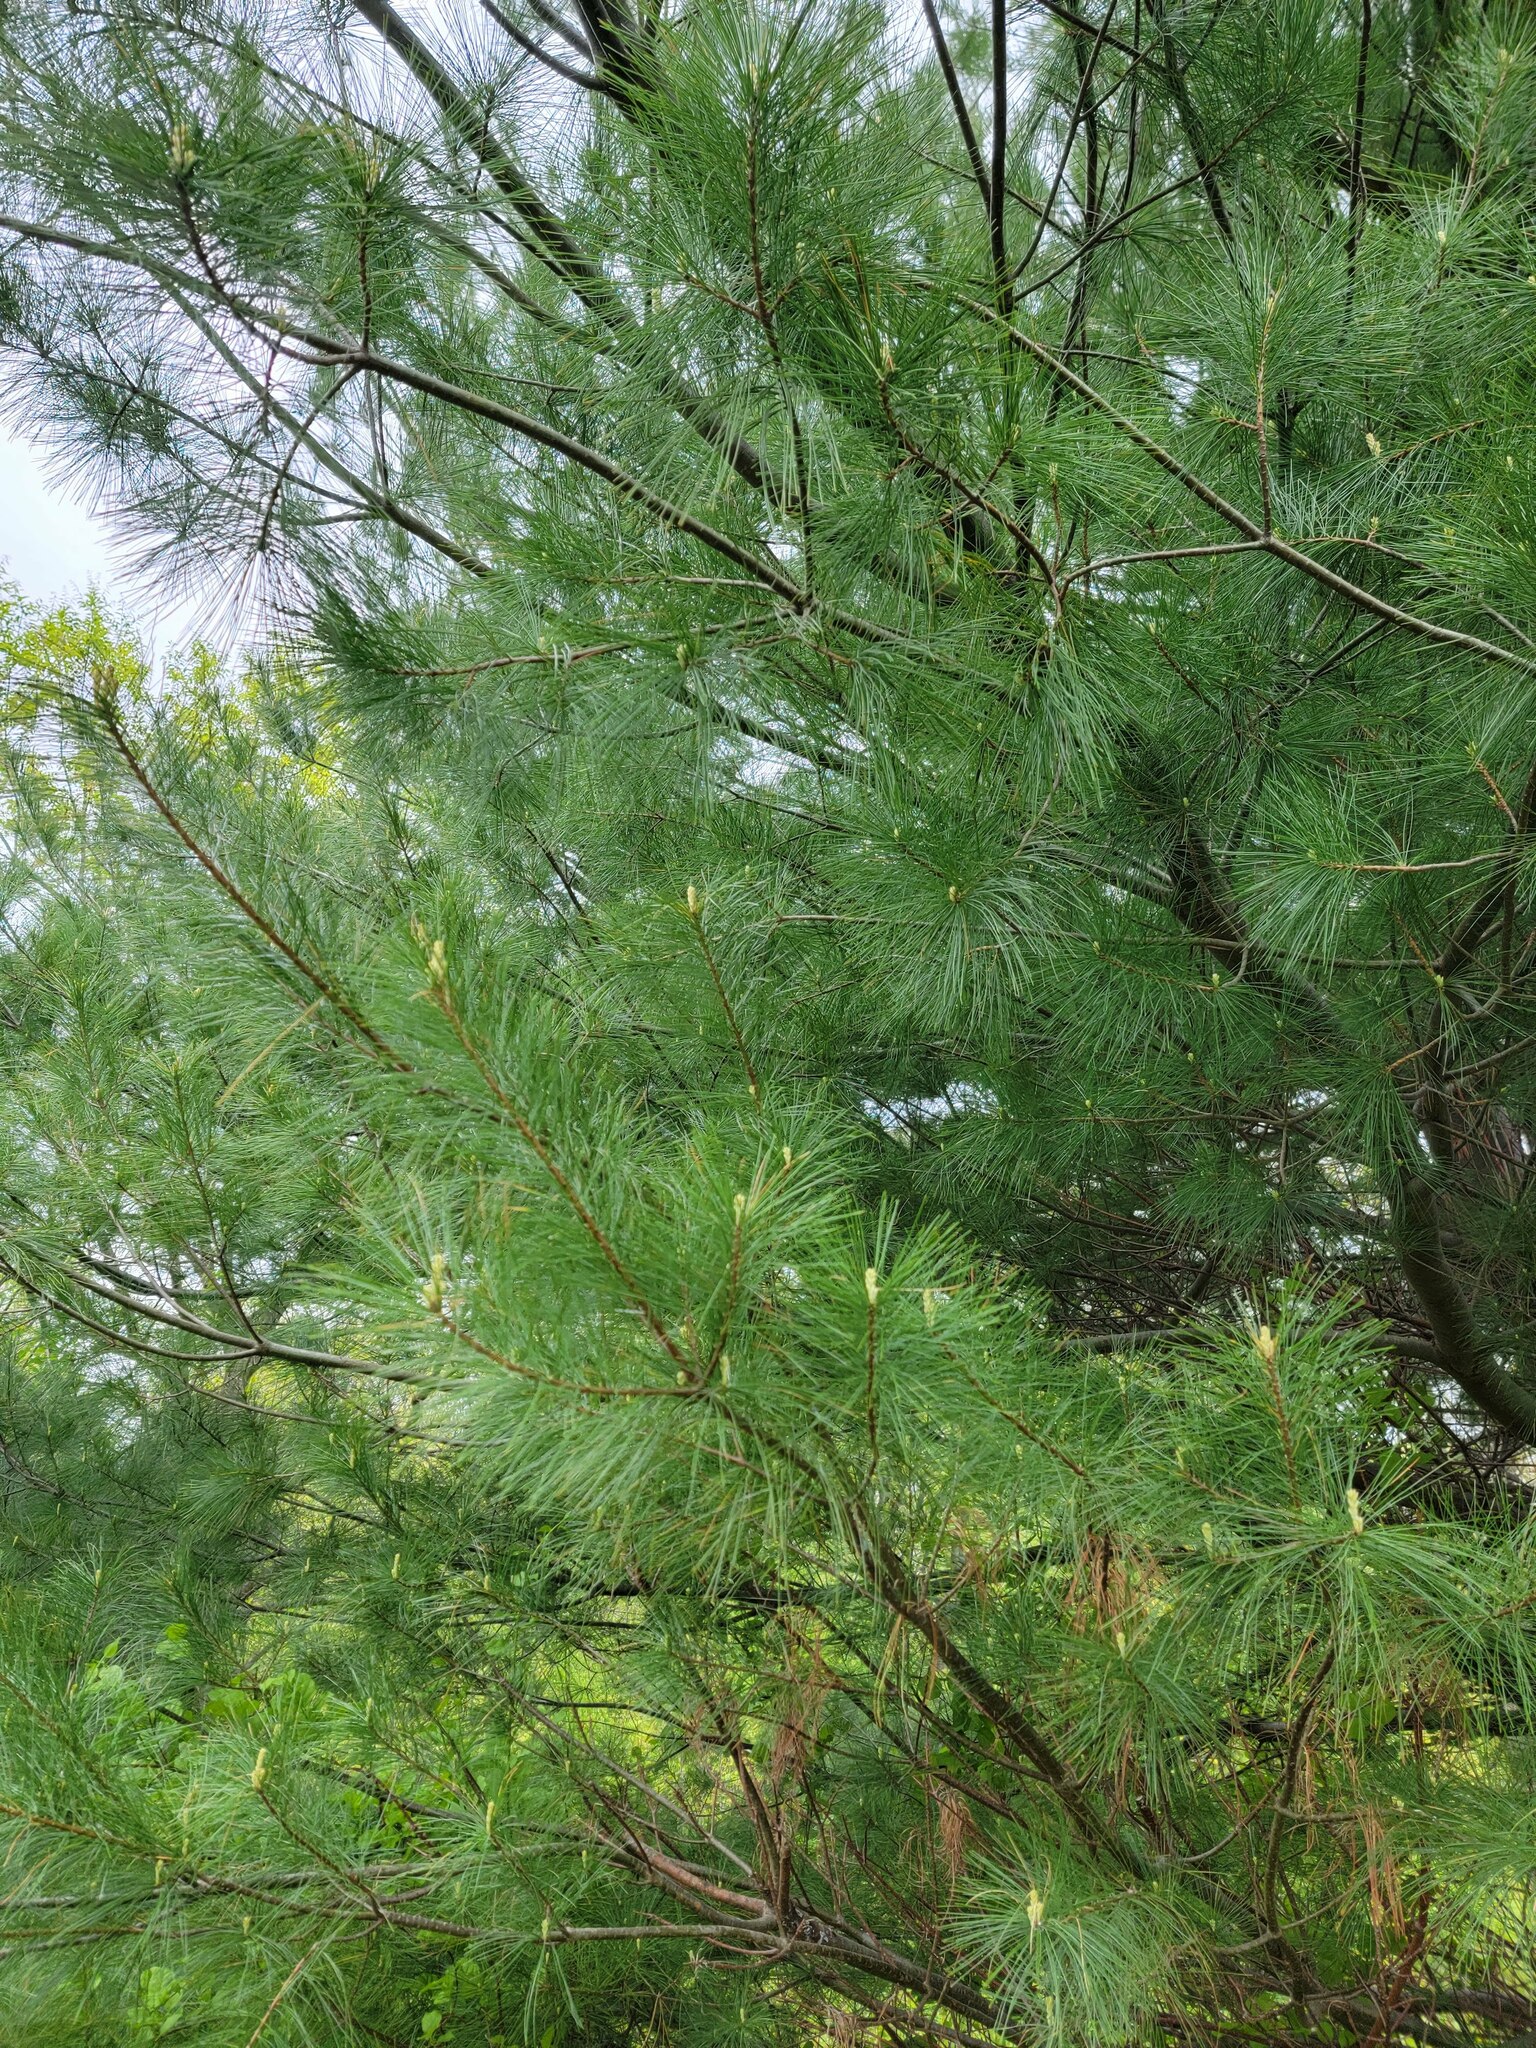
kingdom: Plantae
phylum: Tracheophyta
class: Pinopsida
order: Pinales
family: Pinaceae
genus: Pinus
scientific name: Pinus strobus
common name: Weymouth pine
